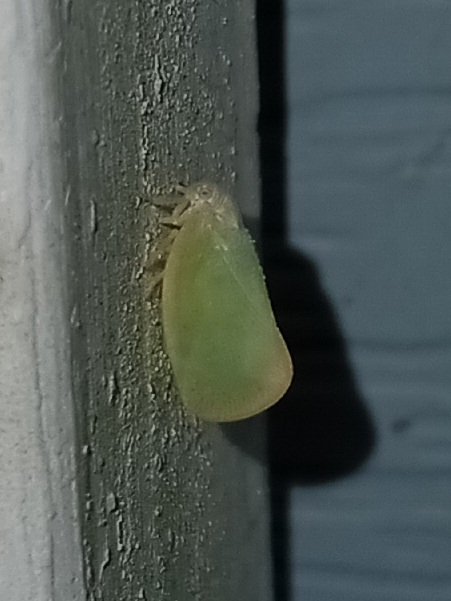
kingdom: Animalia
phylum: Arthropoda
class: Insecta
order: Hemiptera
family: Flatidae
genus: Ormenoides
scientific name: Ormenoides venusta
